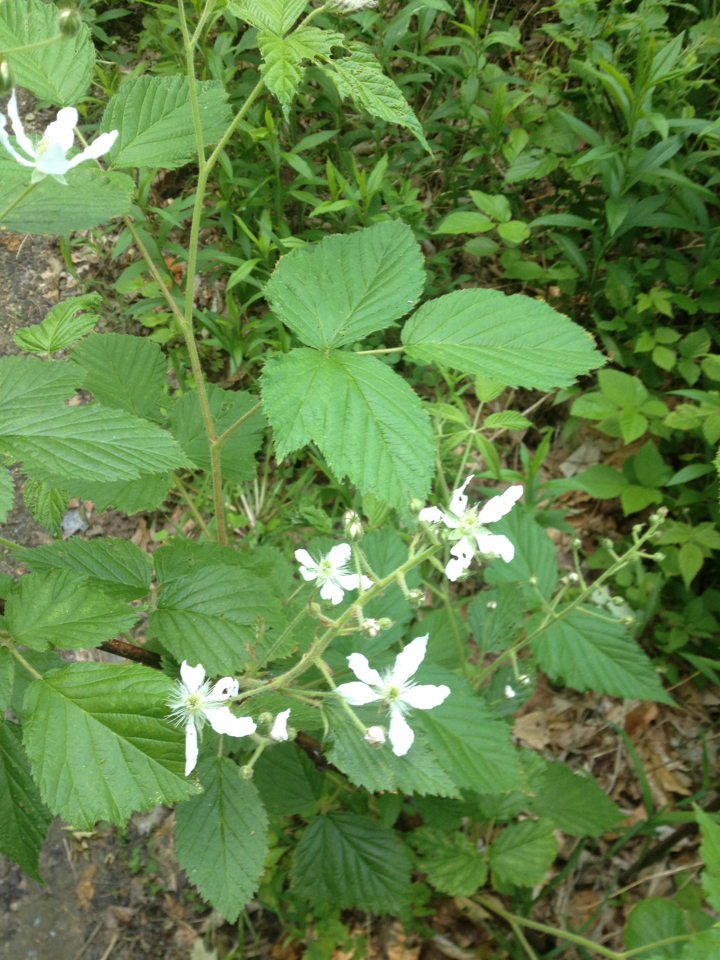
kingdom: Plantae
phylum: Tracheophyta
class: Magnoliopsida
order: Rosales
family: Rosaceae
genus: Rubus
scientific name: Rubus allegheniensis
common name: Allegheny blackberry
